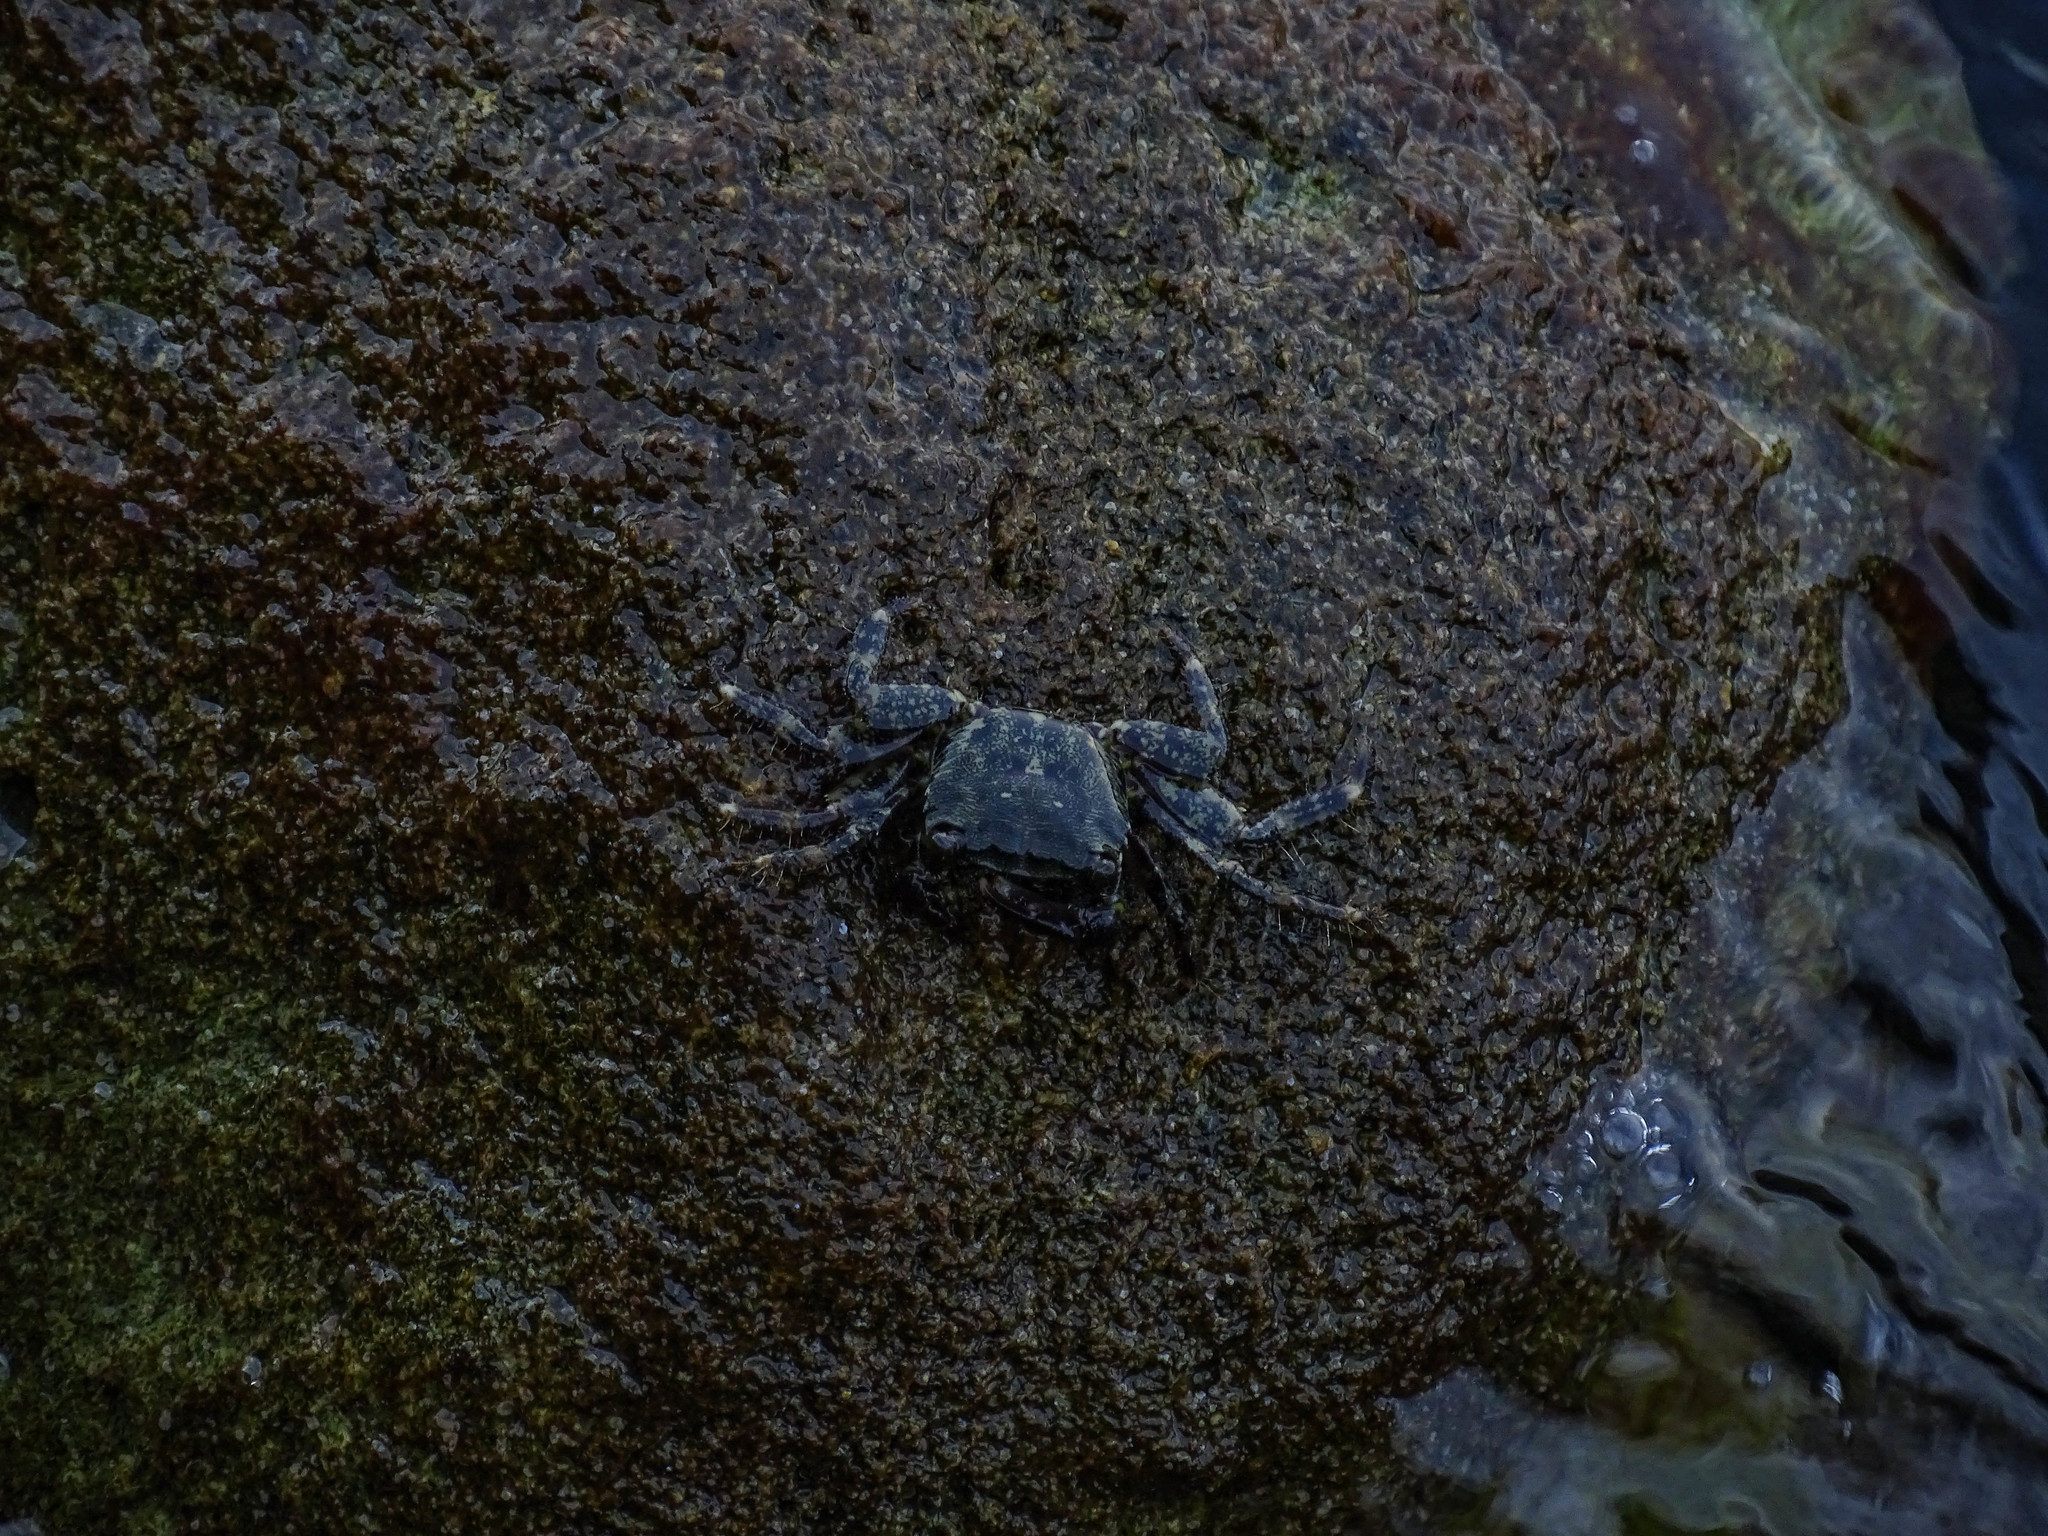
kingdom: Animalia
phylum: Arthropoda
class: Malacostraca
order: Decapoda
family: Grapsidae
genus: Pachygrapsus
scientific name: Pachygrapsus marmoratus
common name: Marbled rock crab
